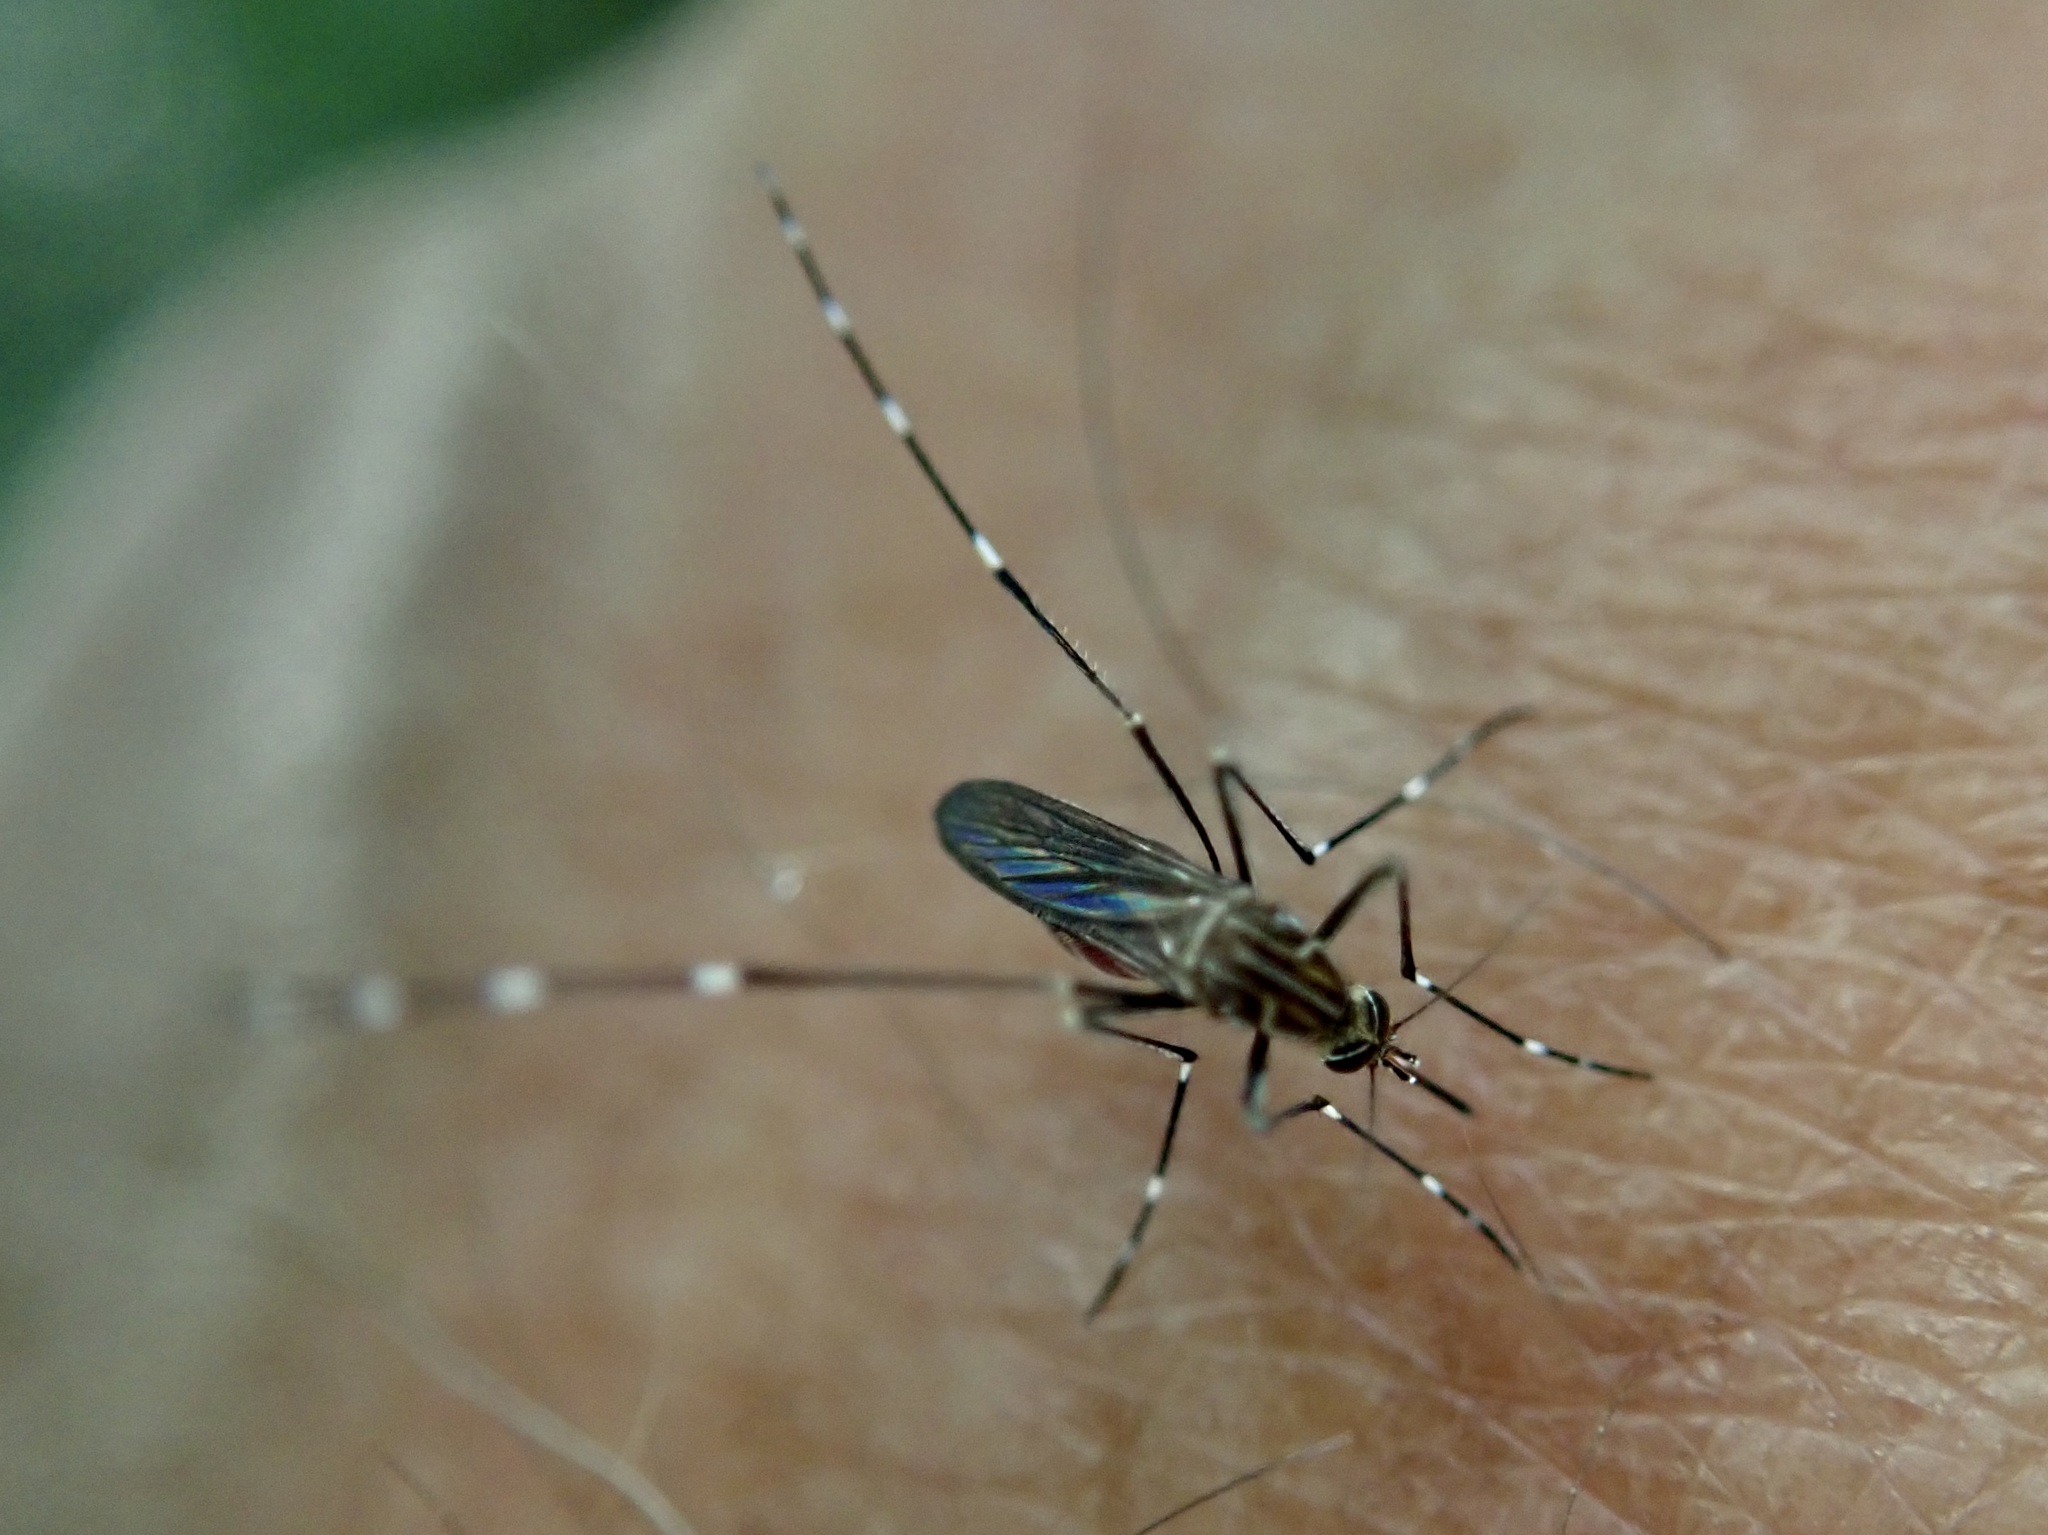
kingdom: Animalia
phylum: Arthropoda
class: Insecta
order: Diptera
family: Culicidae
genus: Aedes
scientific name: Aedes notoscriptus
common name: Australian backyard mosquito
